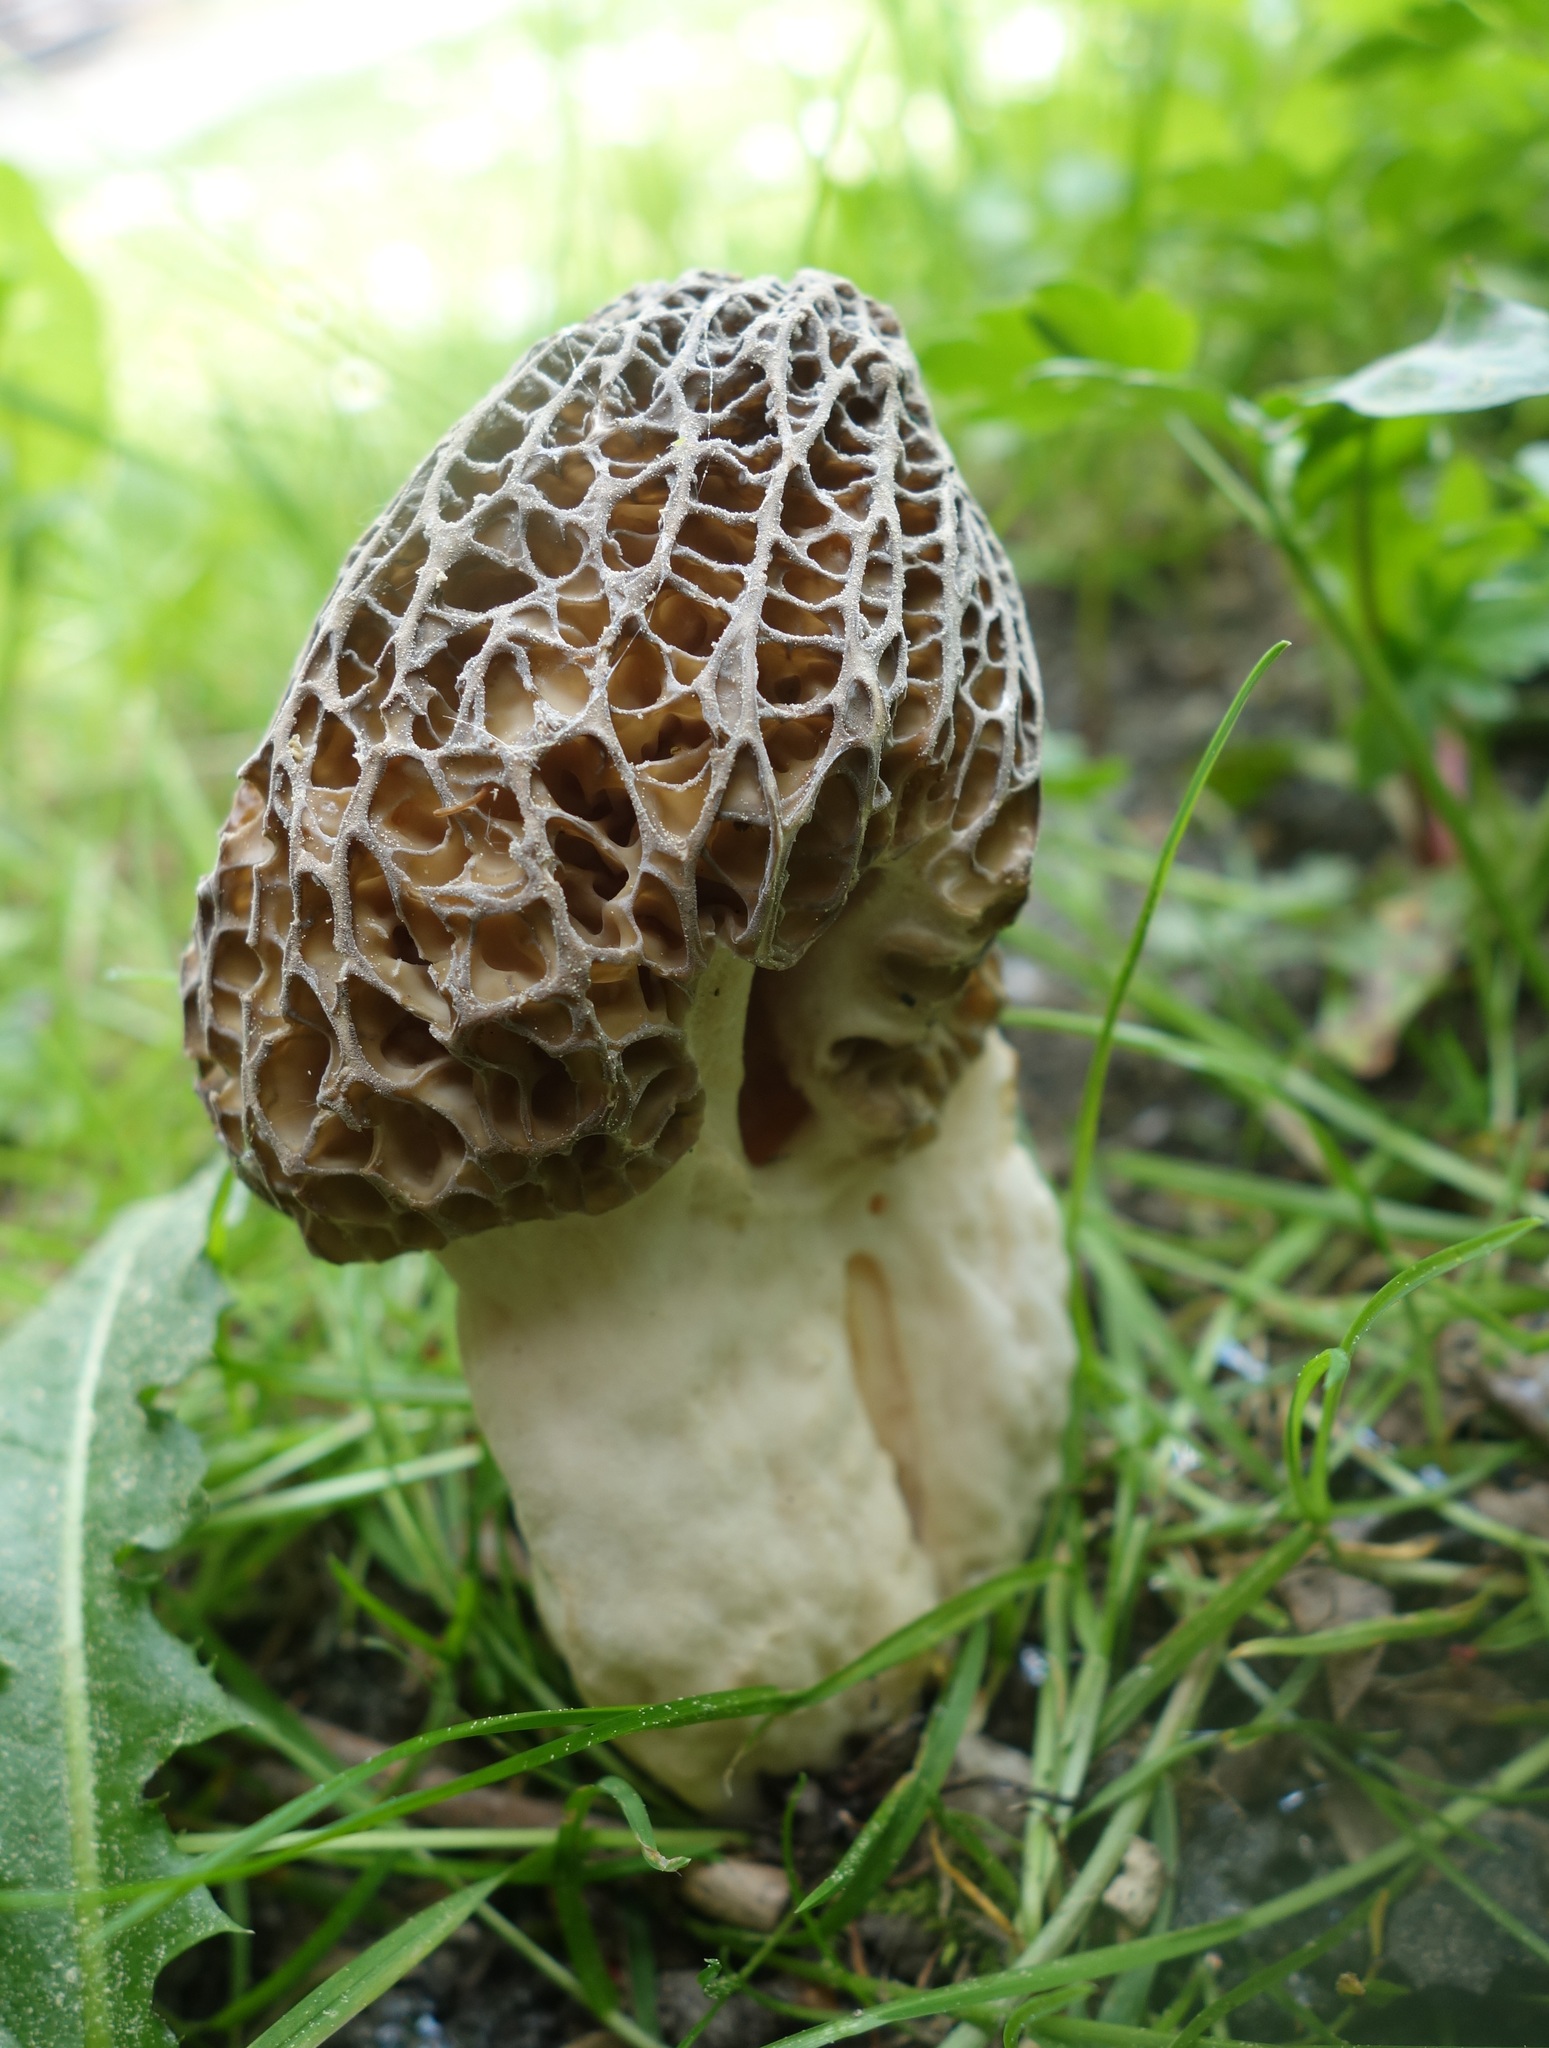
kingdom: Fungi
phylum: Ascomycota
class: Pezizomycetes
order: Pezizales
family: Morchellaceae
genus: Morchella
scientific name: Morchella importuna
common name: Landscaping black morel
